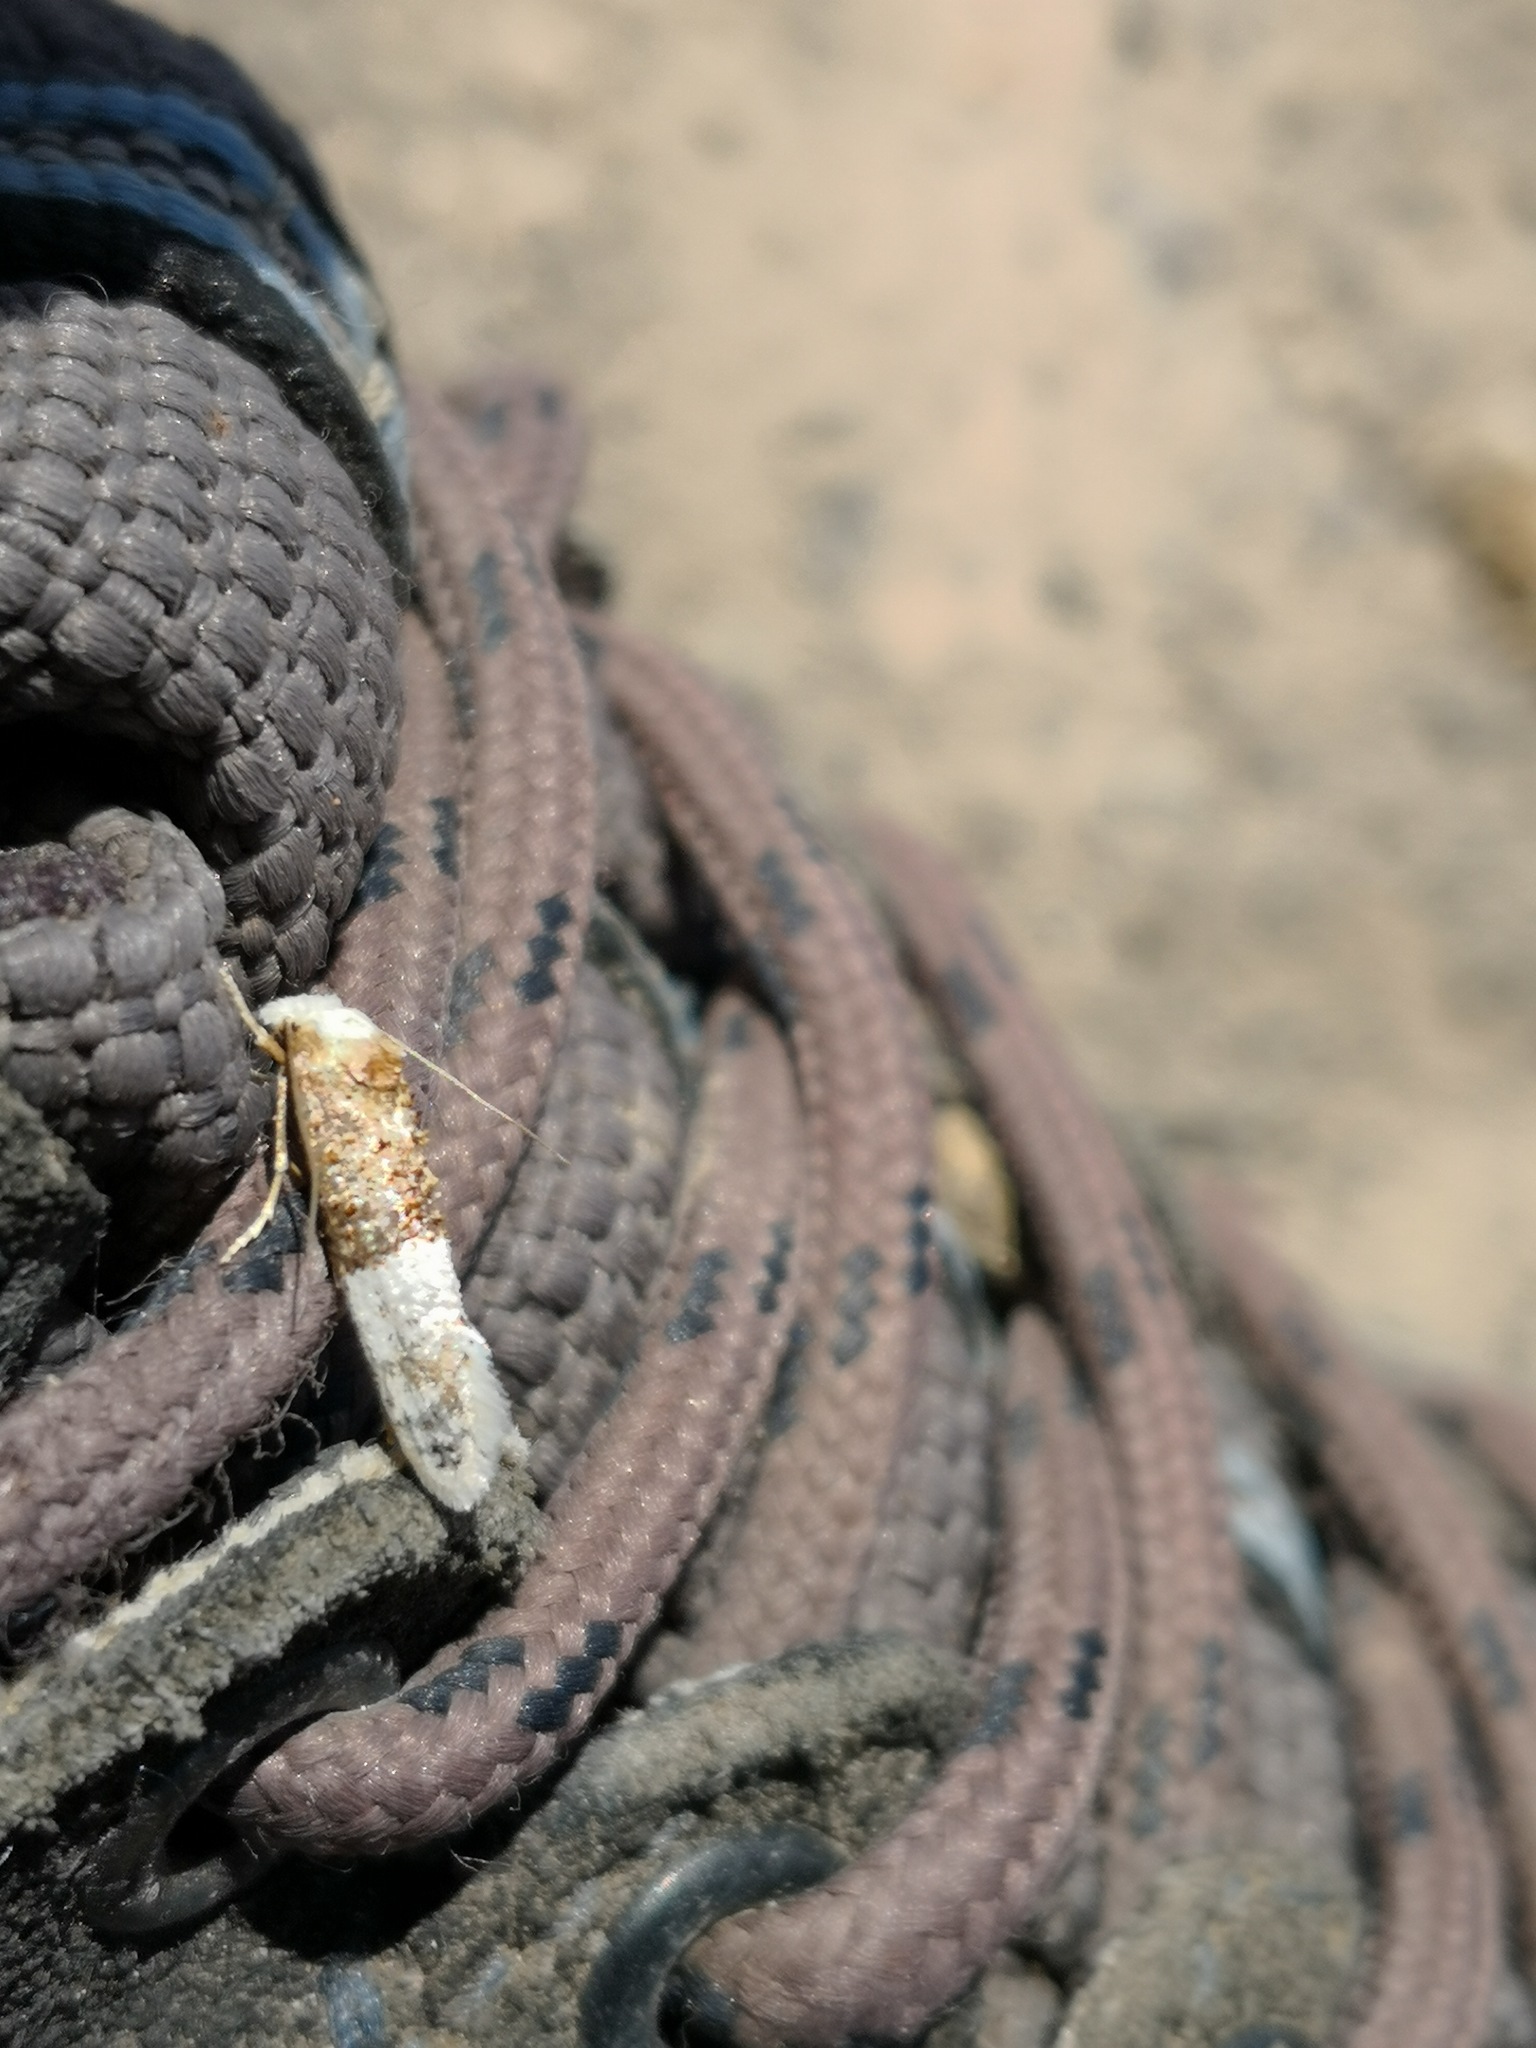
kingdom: Animalia
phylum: Arthropoda
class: Insecta
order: Lepidoptera
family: Tortricidae
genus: Epinotia
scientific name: Epinotia thapsiana
